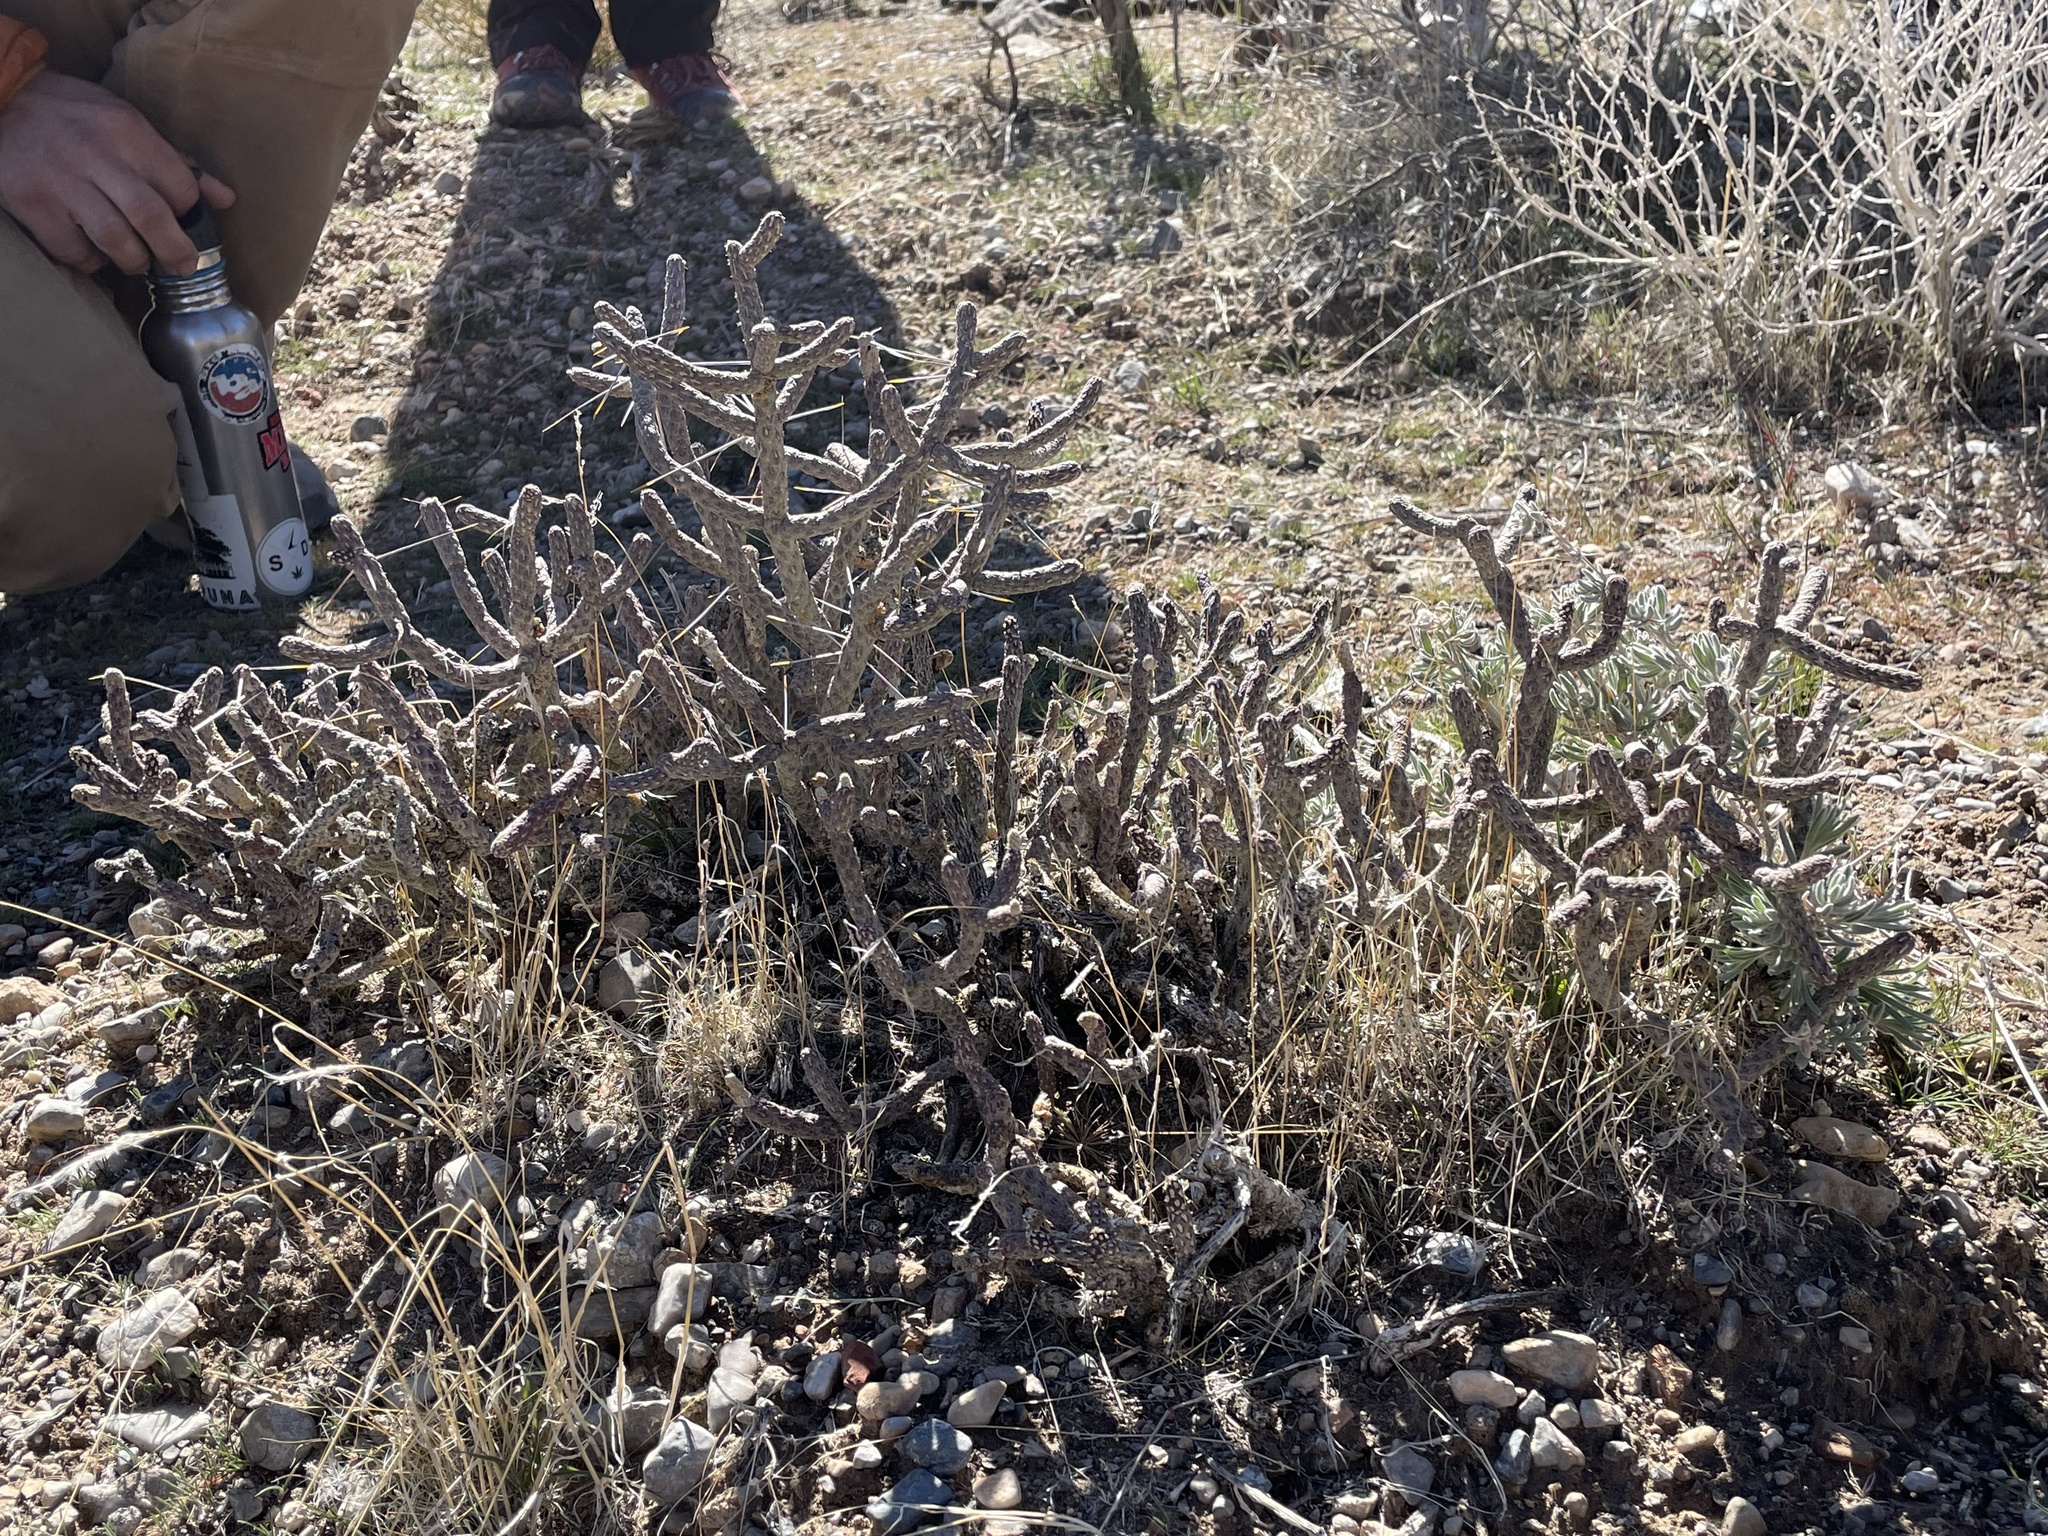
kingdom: Plantae
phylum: Tracheophyta
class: Magnoliopsida
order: Caryophyllales
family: Cactaceae
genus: Cylindropuntia
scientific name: Cylindropuntia ramosissima
